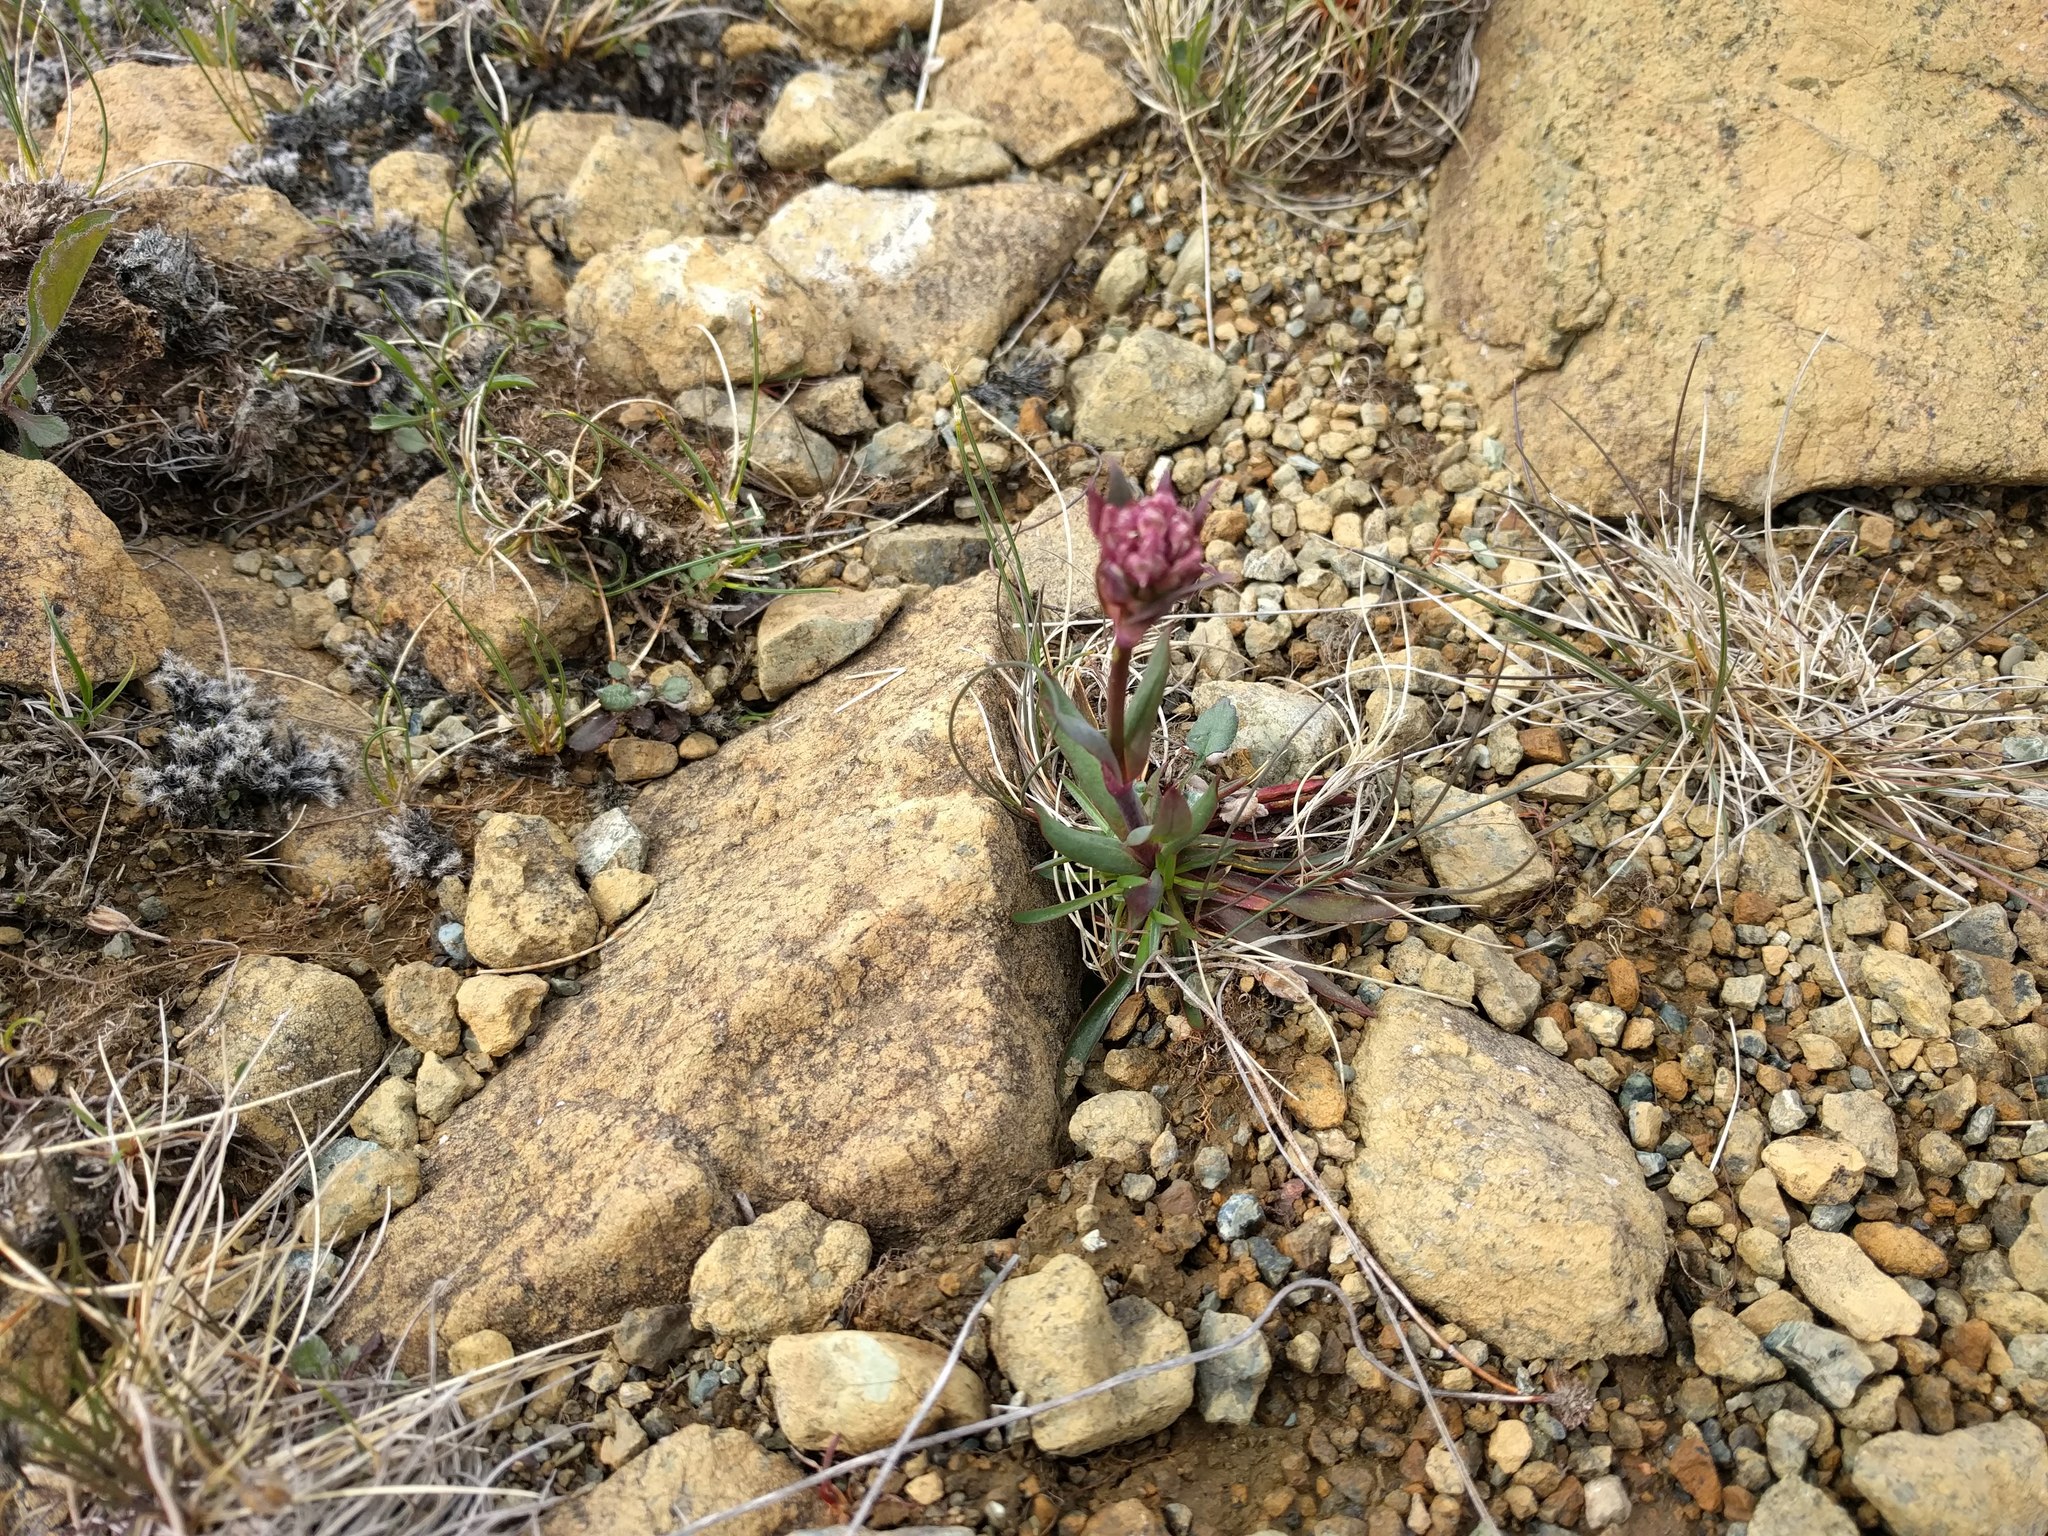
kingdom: Plantae
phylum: Tracheophyta
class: Magnoliopsida
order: Caryophyllales
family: Caryophyllaceae
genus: Viscaria
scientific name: Viscaria alpina
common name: Alpine campion
